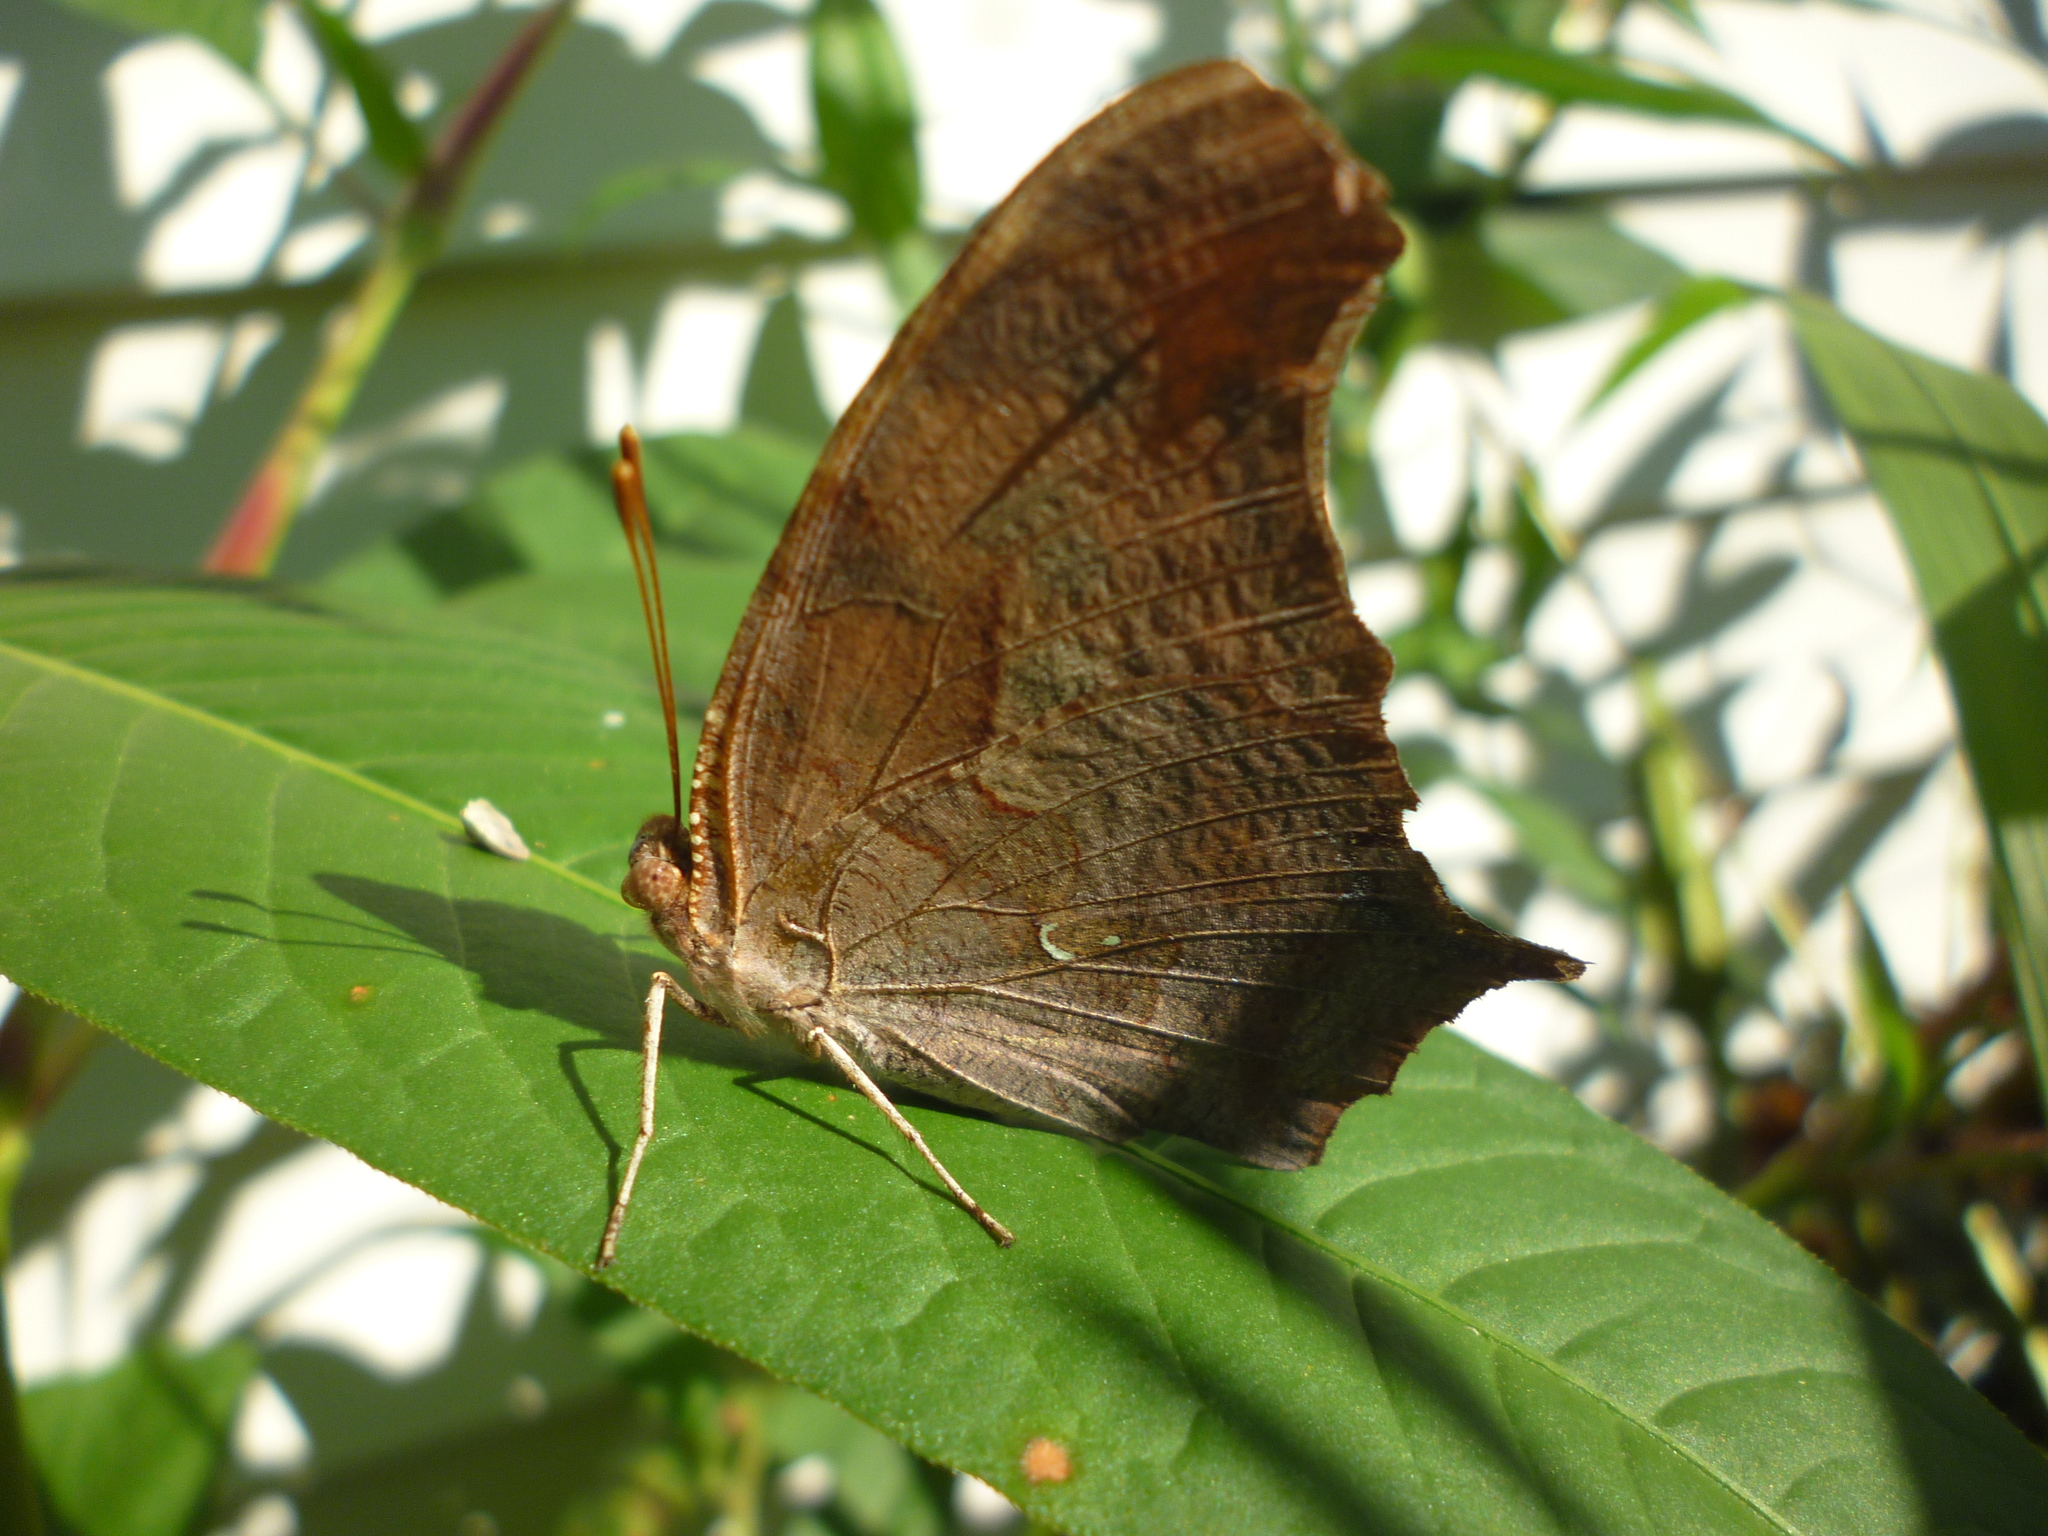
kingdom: Animalia
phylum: Arthropoda
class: Insecta
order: Lepidoptera
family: Nymphalidae
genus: Polygonia
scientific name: Polygonia interrogationis
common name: Question mark
